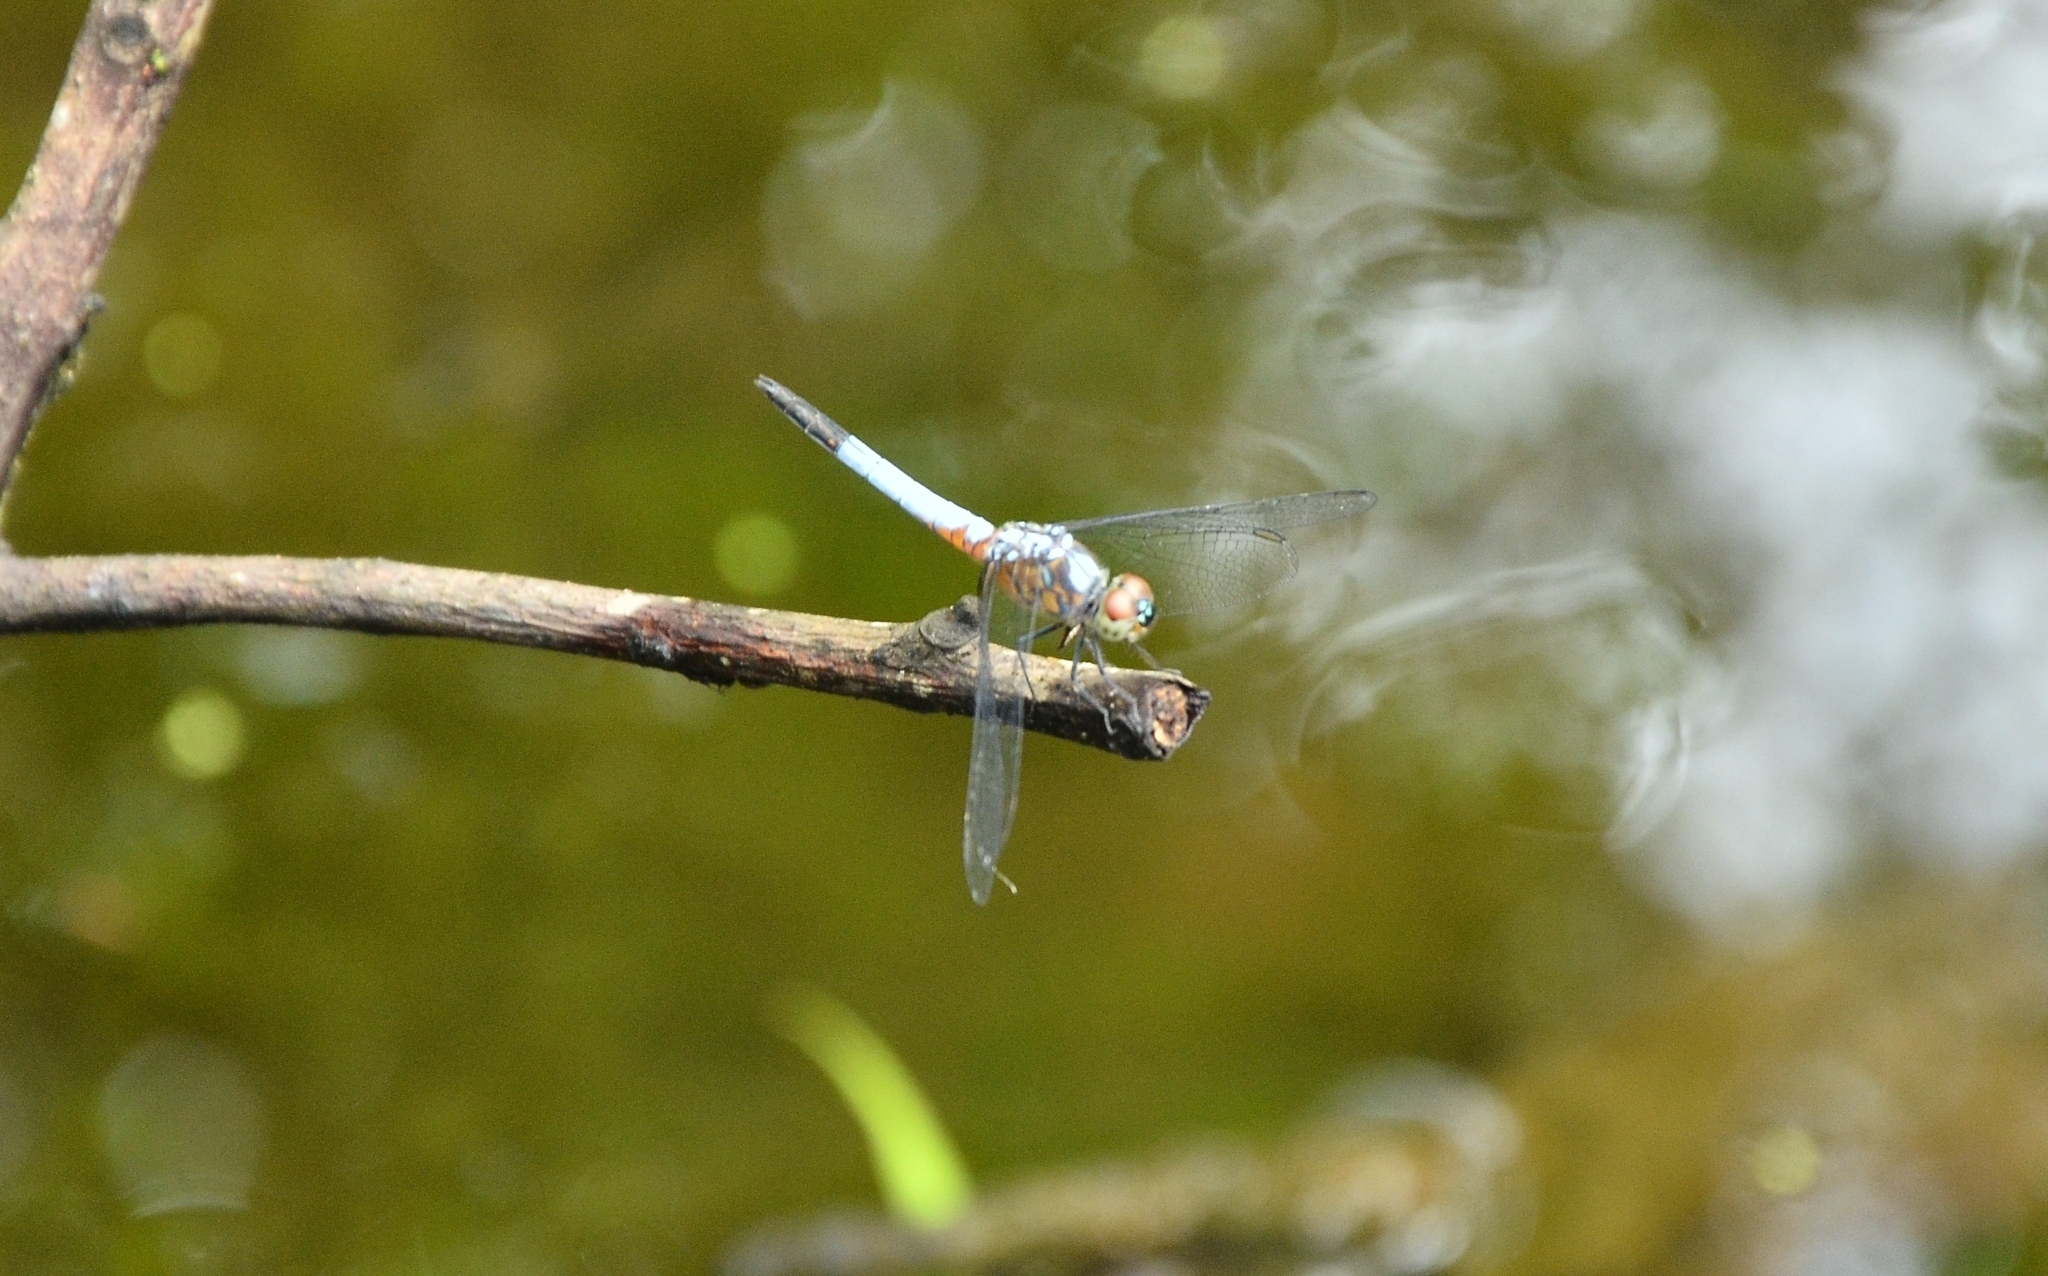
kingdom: Animalia
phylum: Arthropoda
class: Insecta
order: Odonata
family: Libellulidae
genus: Brachydiplax
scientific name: Brachydiplax chalybea
